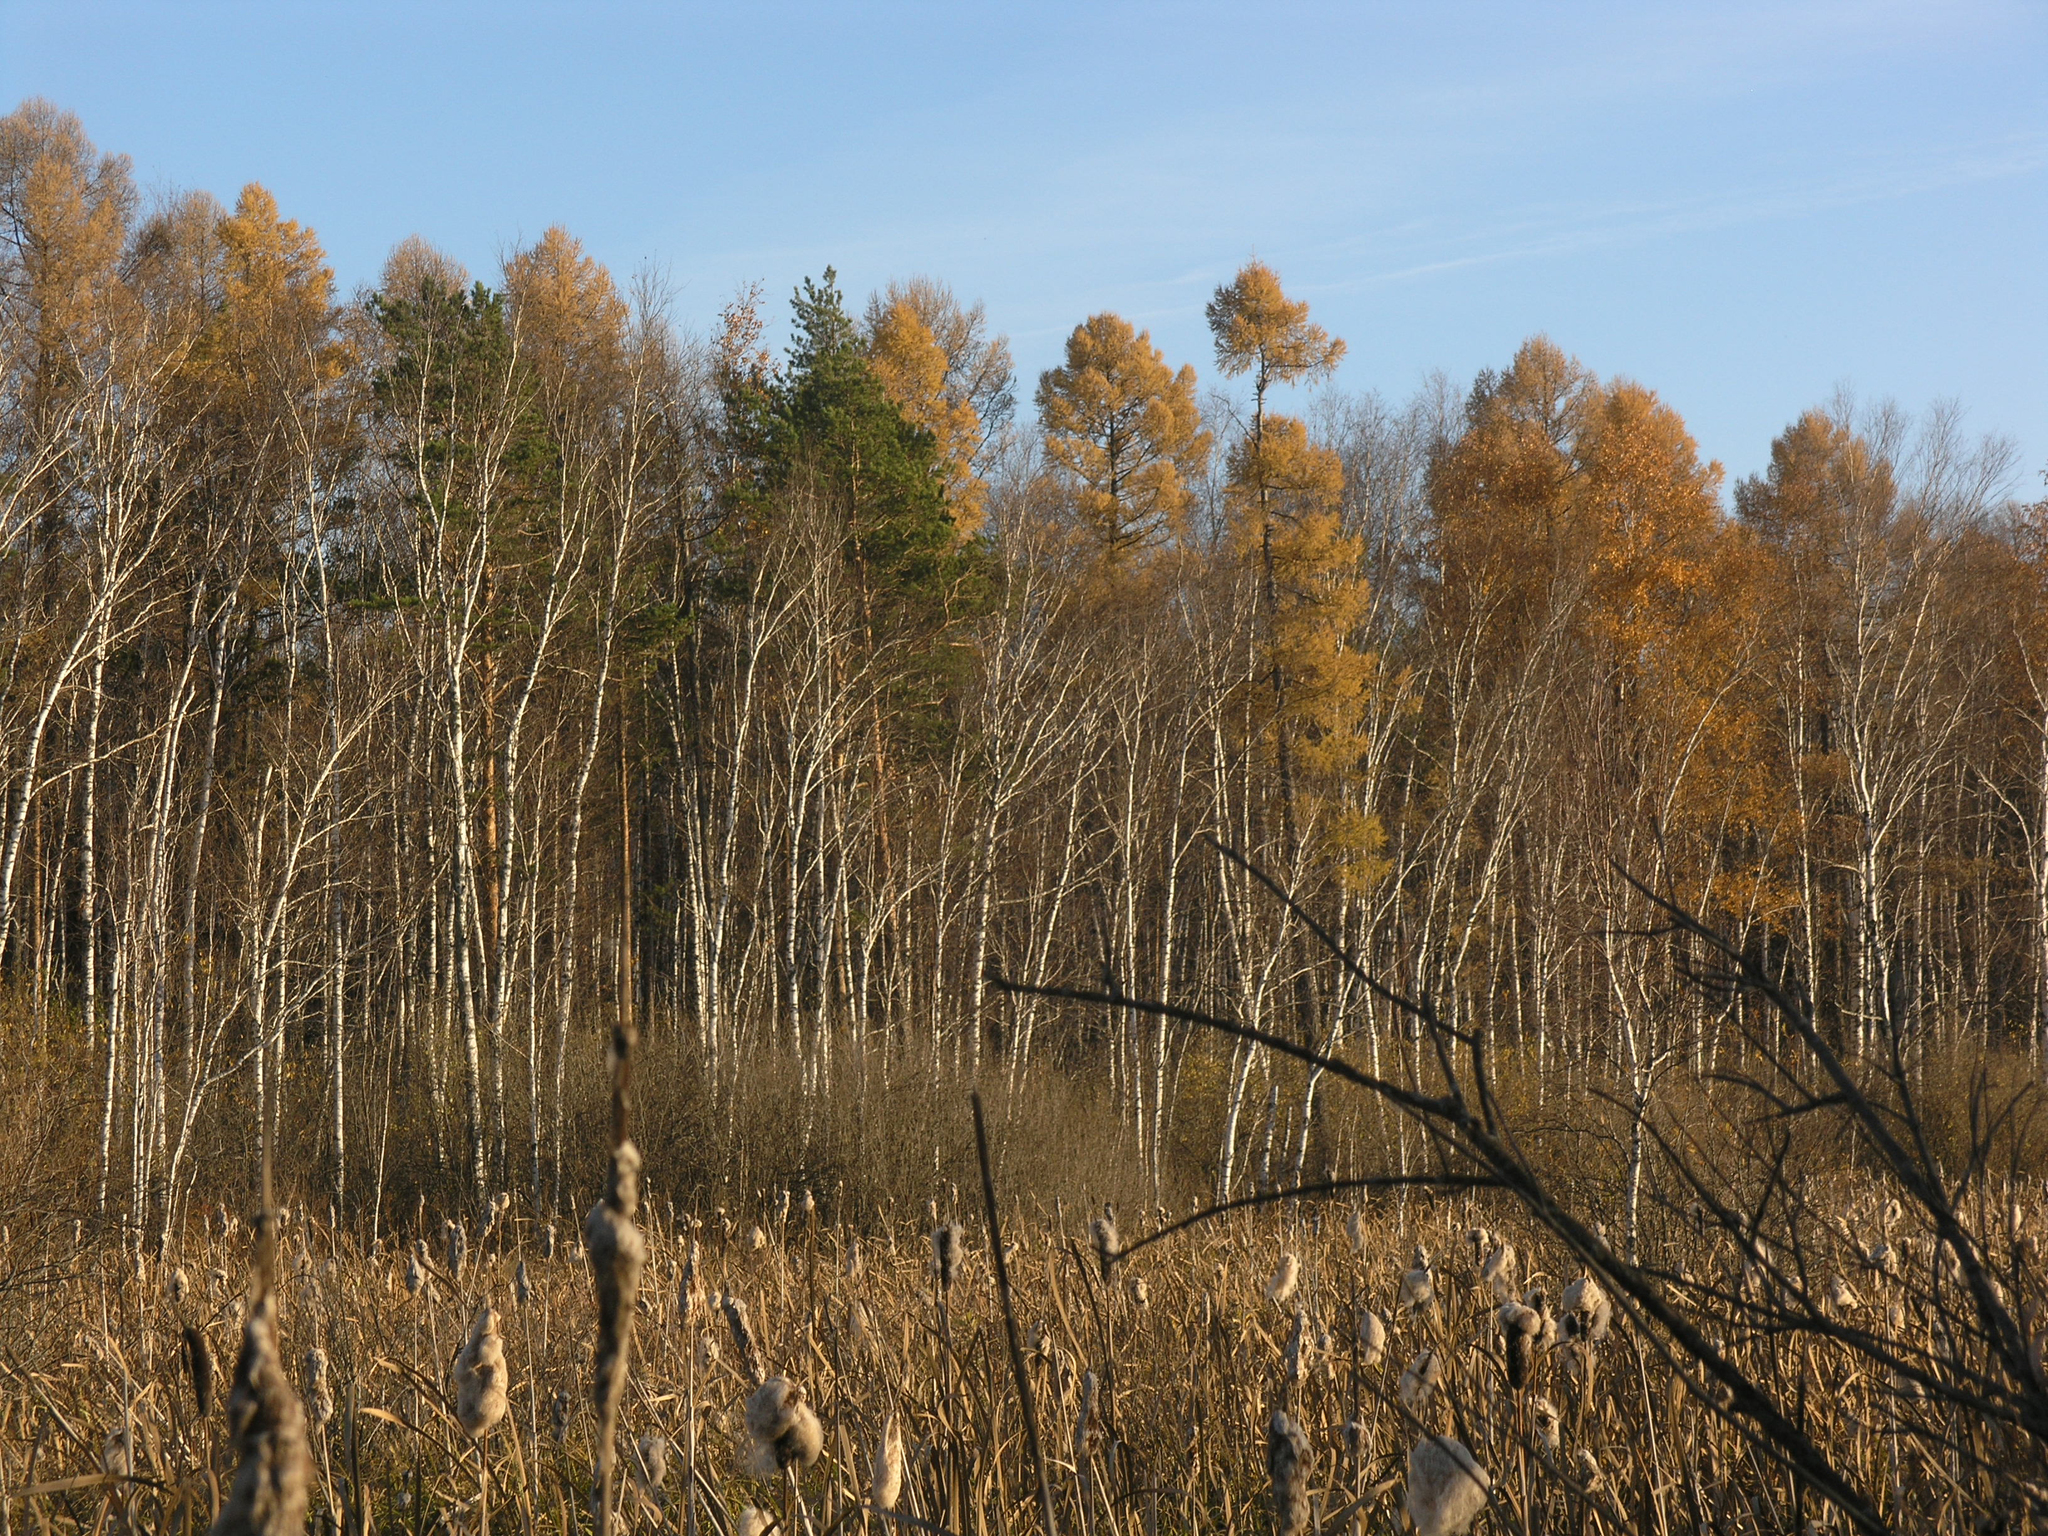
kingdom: Plantae
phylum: Tracheophyta
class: Pinopsida
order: Pinales
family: Pinaceae
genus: Larix
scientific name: Larix sibirica
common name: Siberian larch
